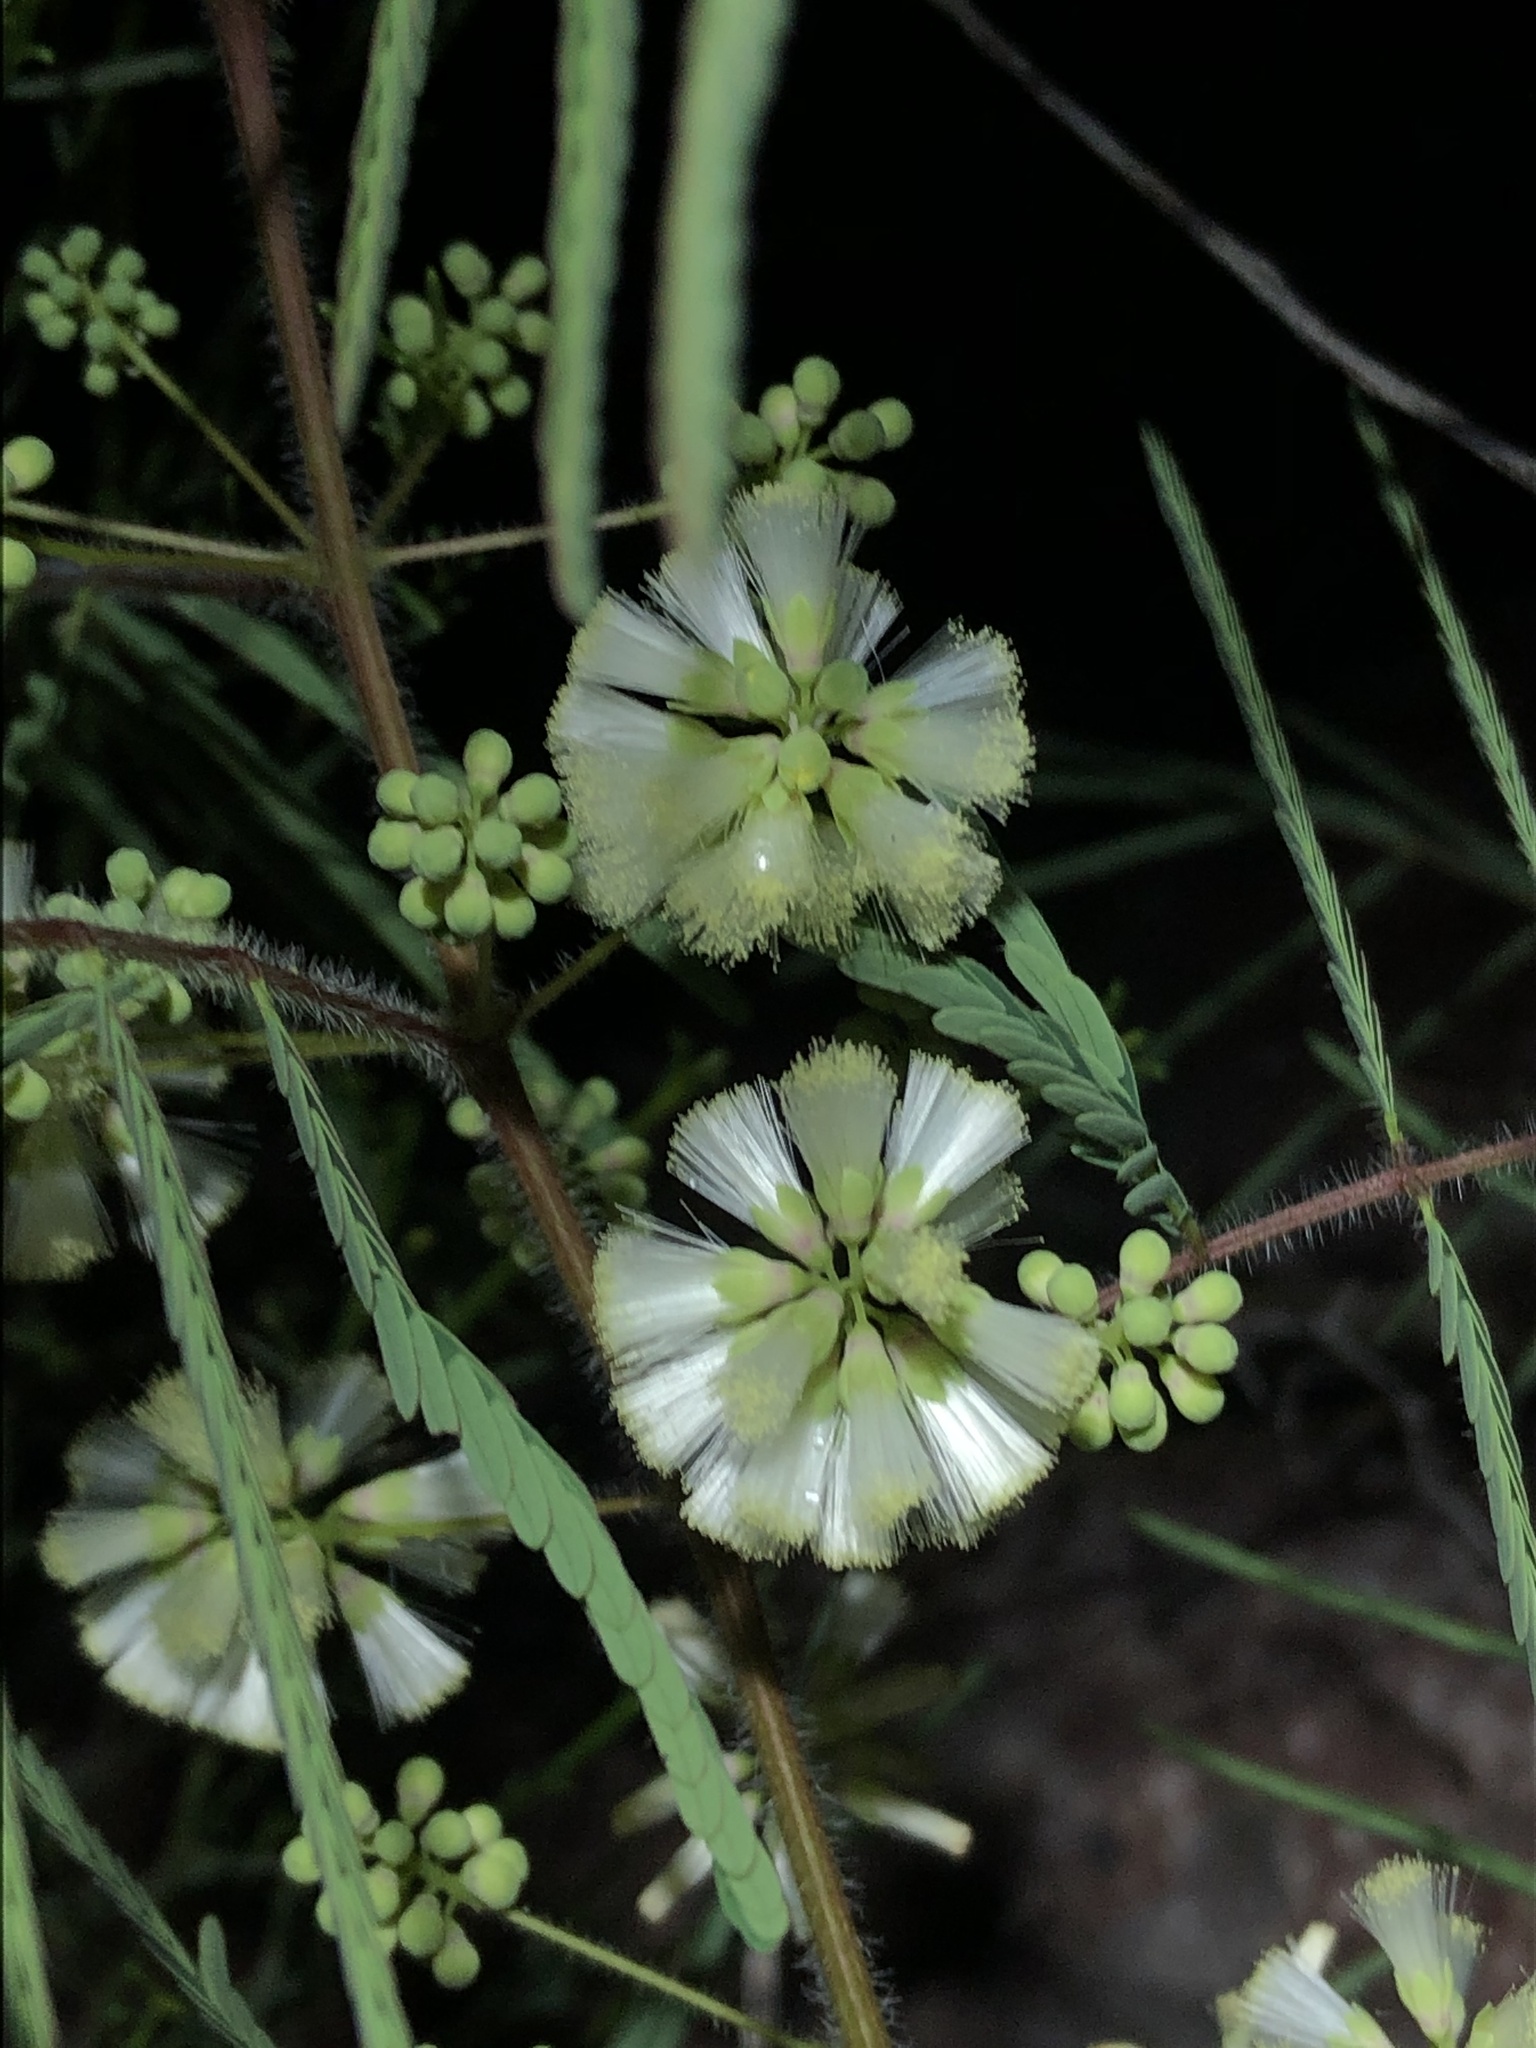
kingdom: Plantae
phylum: Tracheophyta
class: Magnoliopsida
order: Fabales
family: Fabaceae
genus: Acaciella
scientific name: Acaciella angustissima
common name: Prairie acacia
